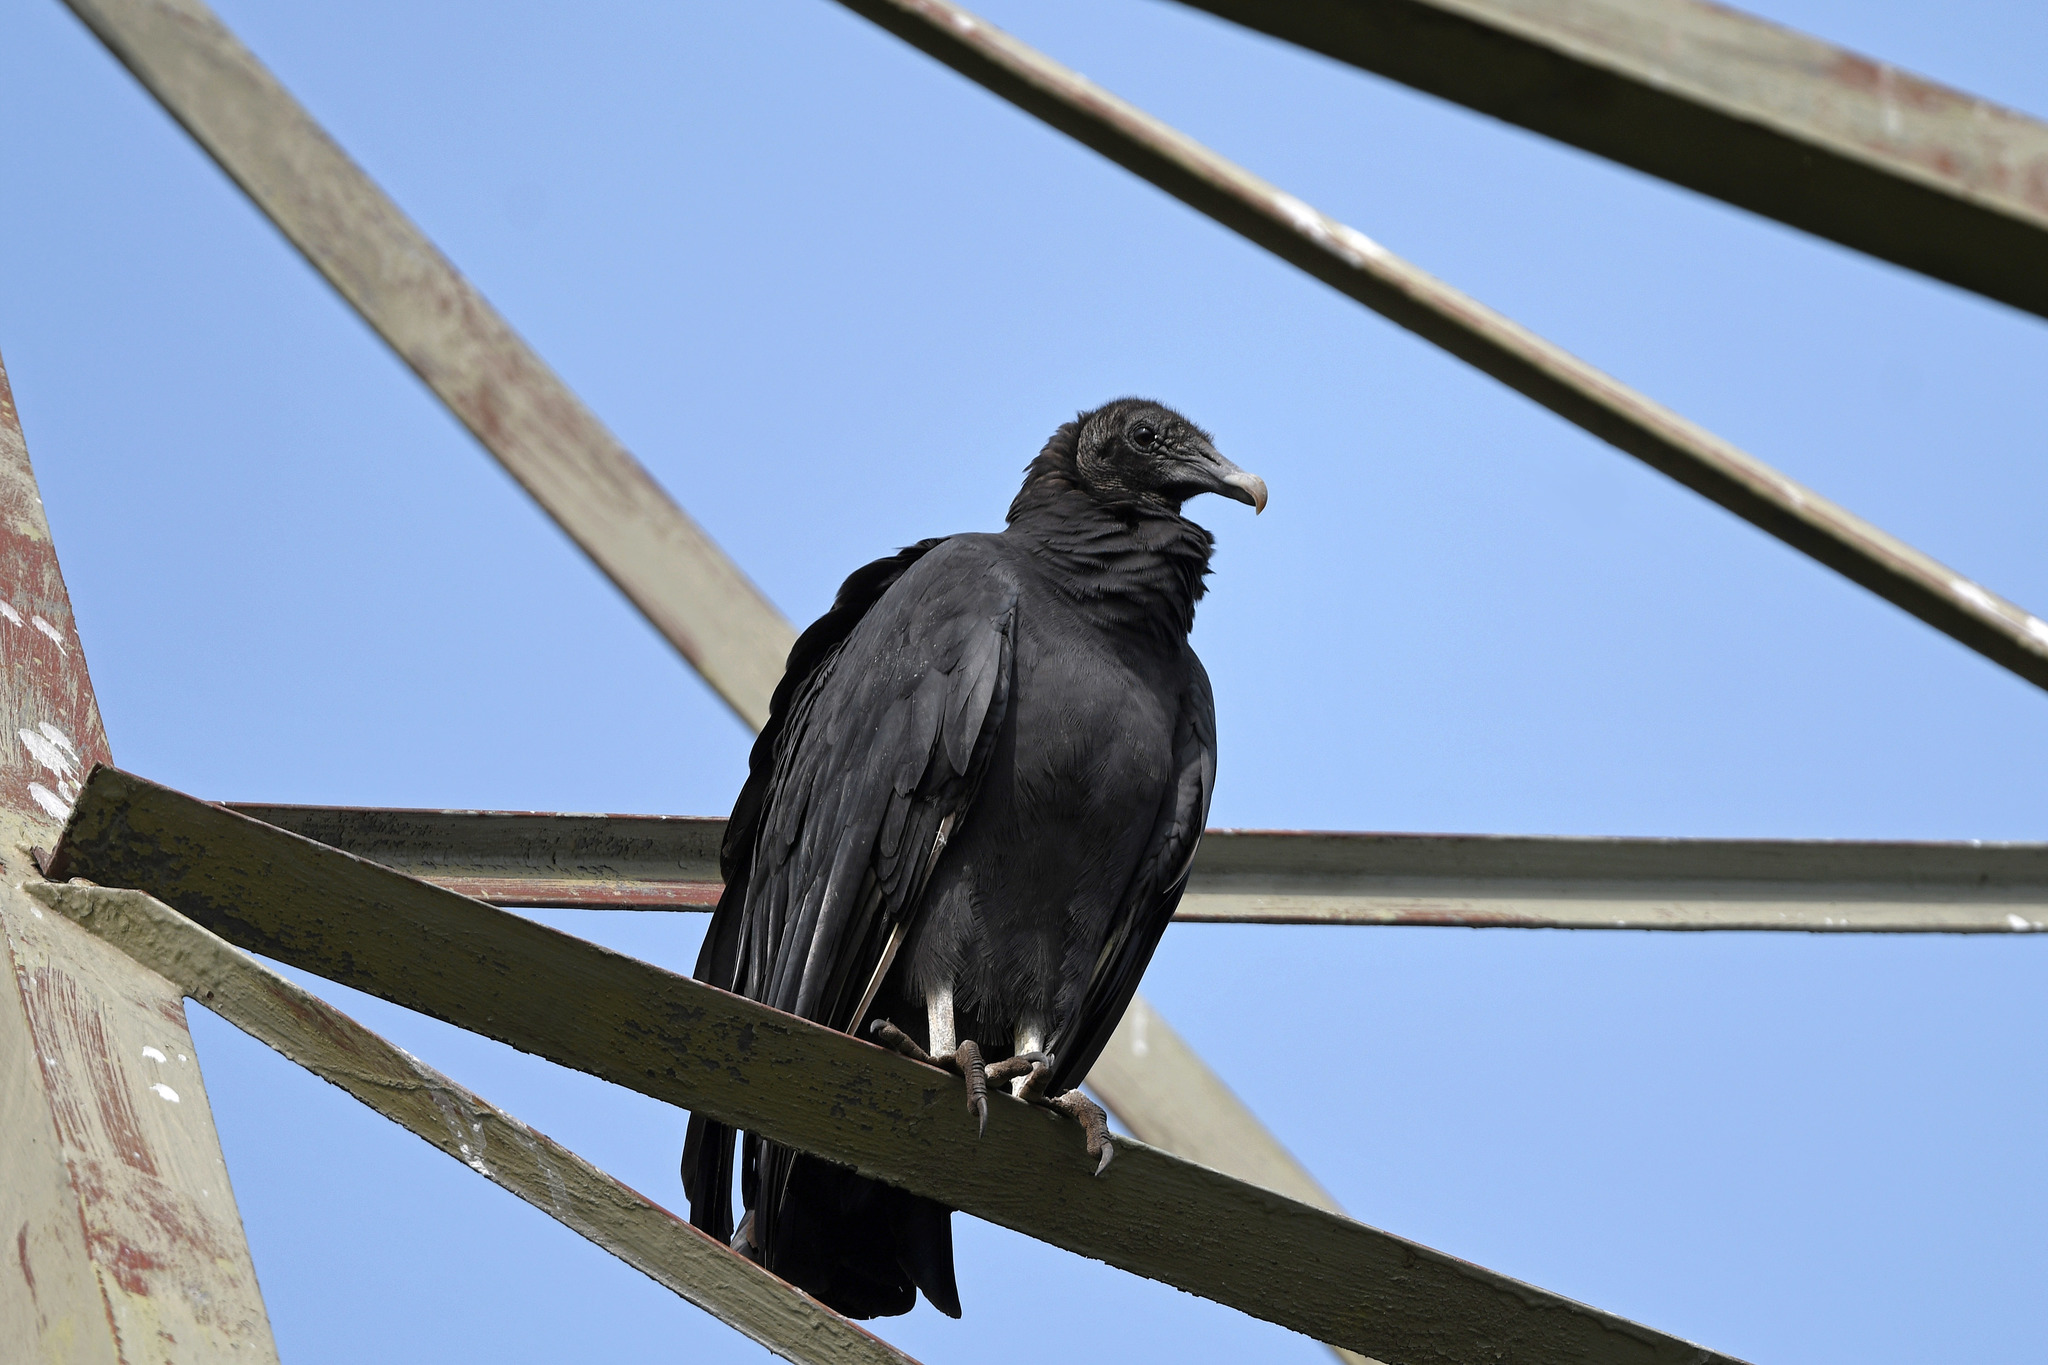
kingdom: Animalia
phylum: Chordata
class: Aves
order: Accipitriformes
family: Cathartidae
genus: Coragyps
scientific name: Coragyps atratus
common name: Black vulture
